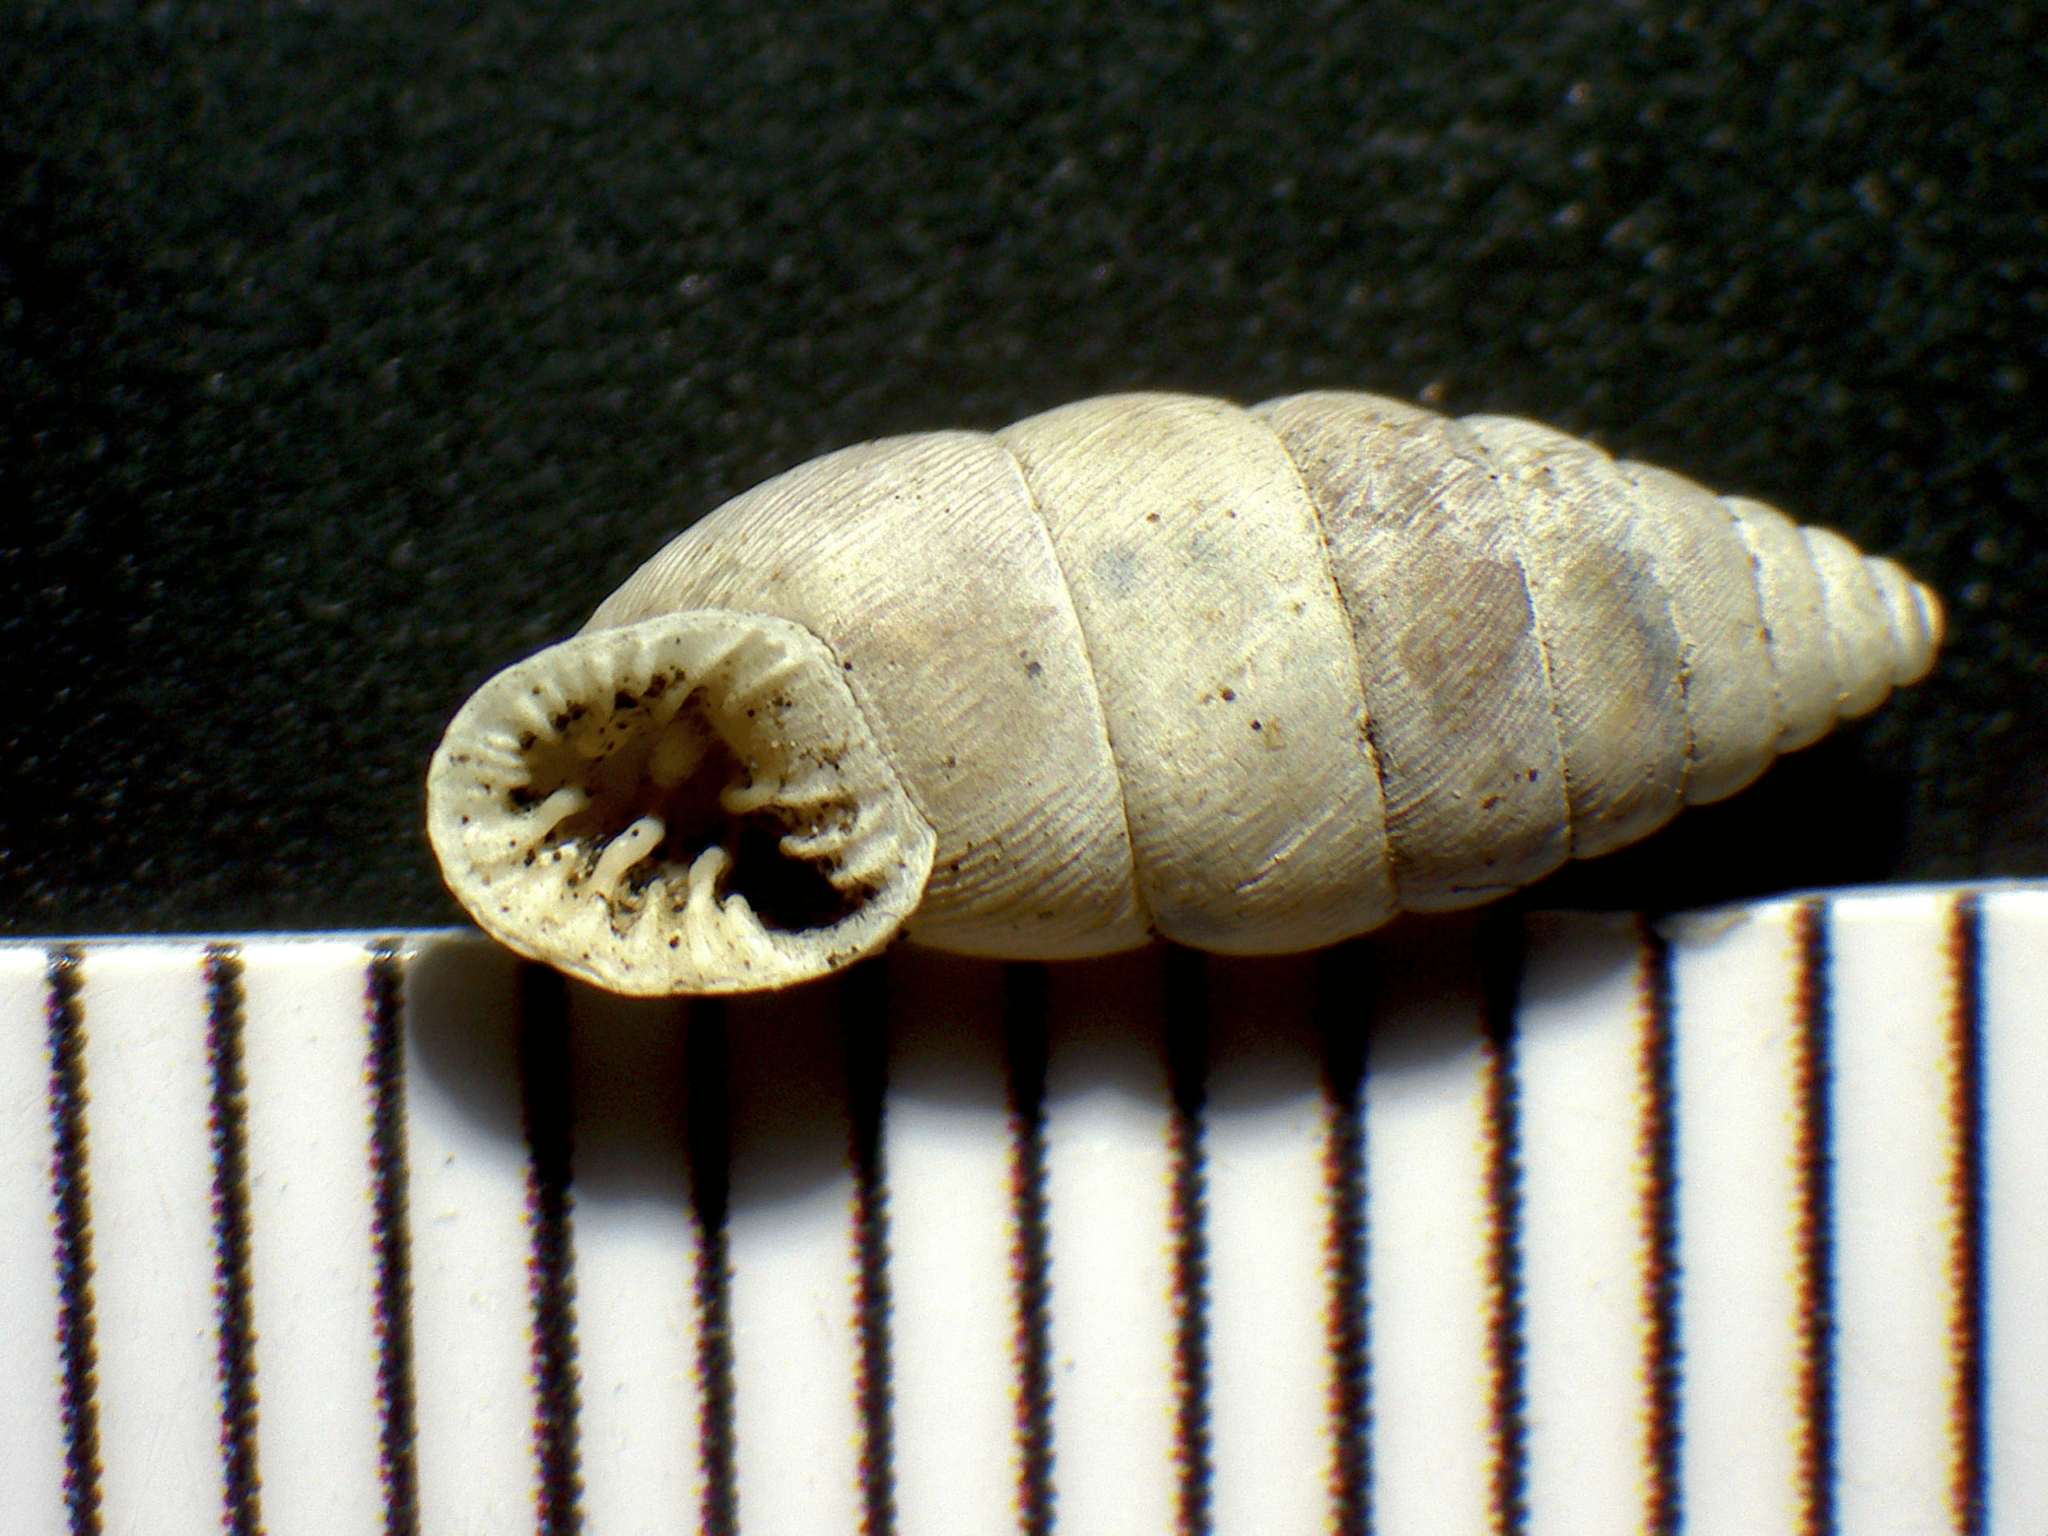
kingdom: Animalia
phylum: Mollusca
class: Gastropoda
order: Stylommatophora
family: Chondrinidae
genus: Abida
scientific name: Abida polyodon
